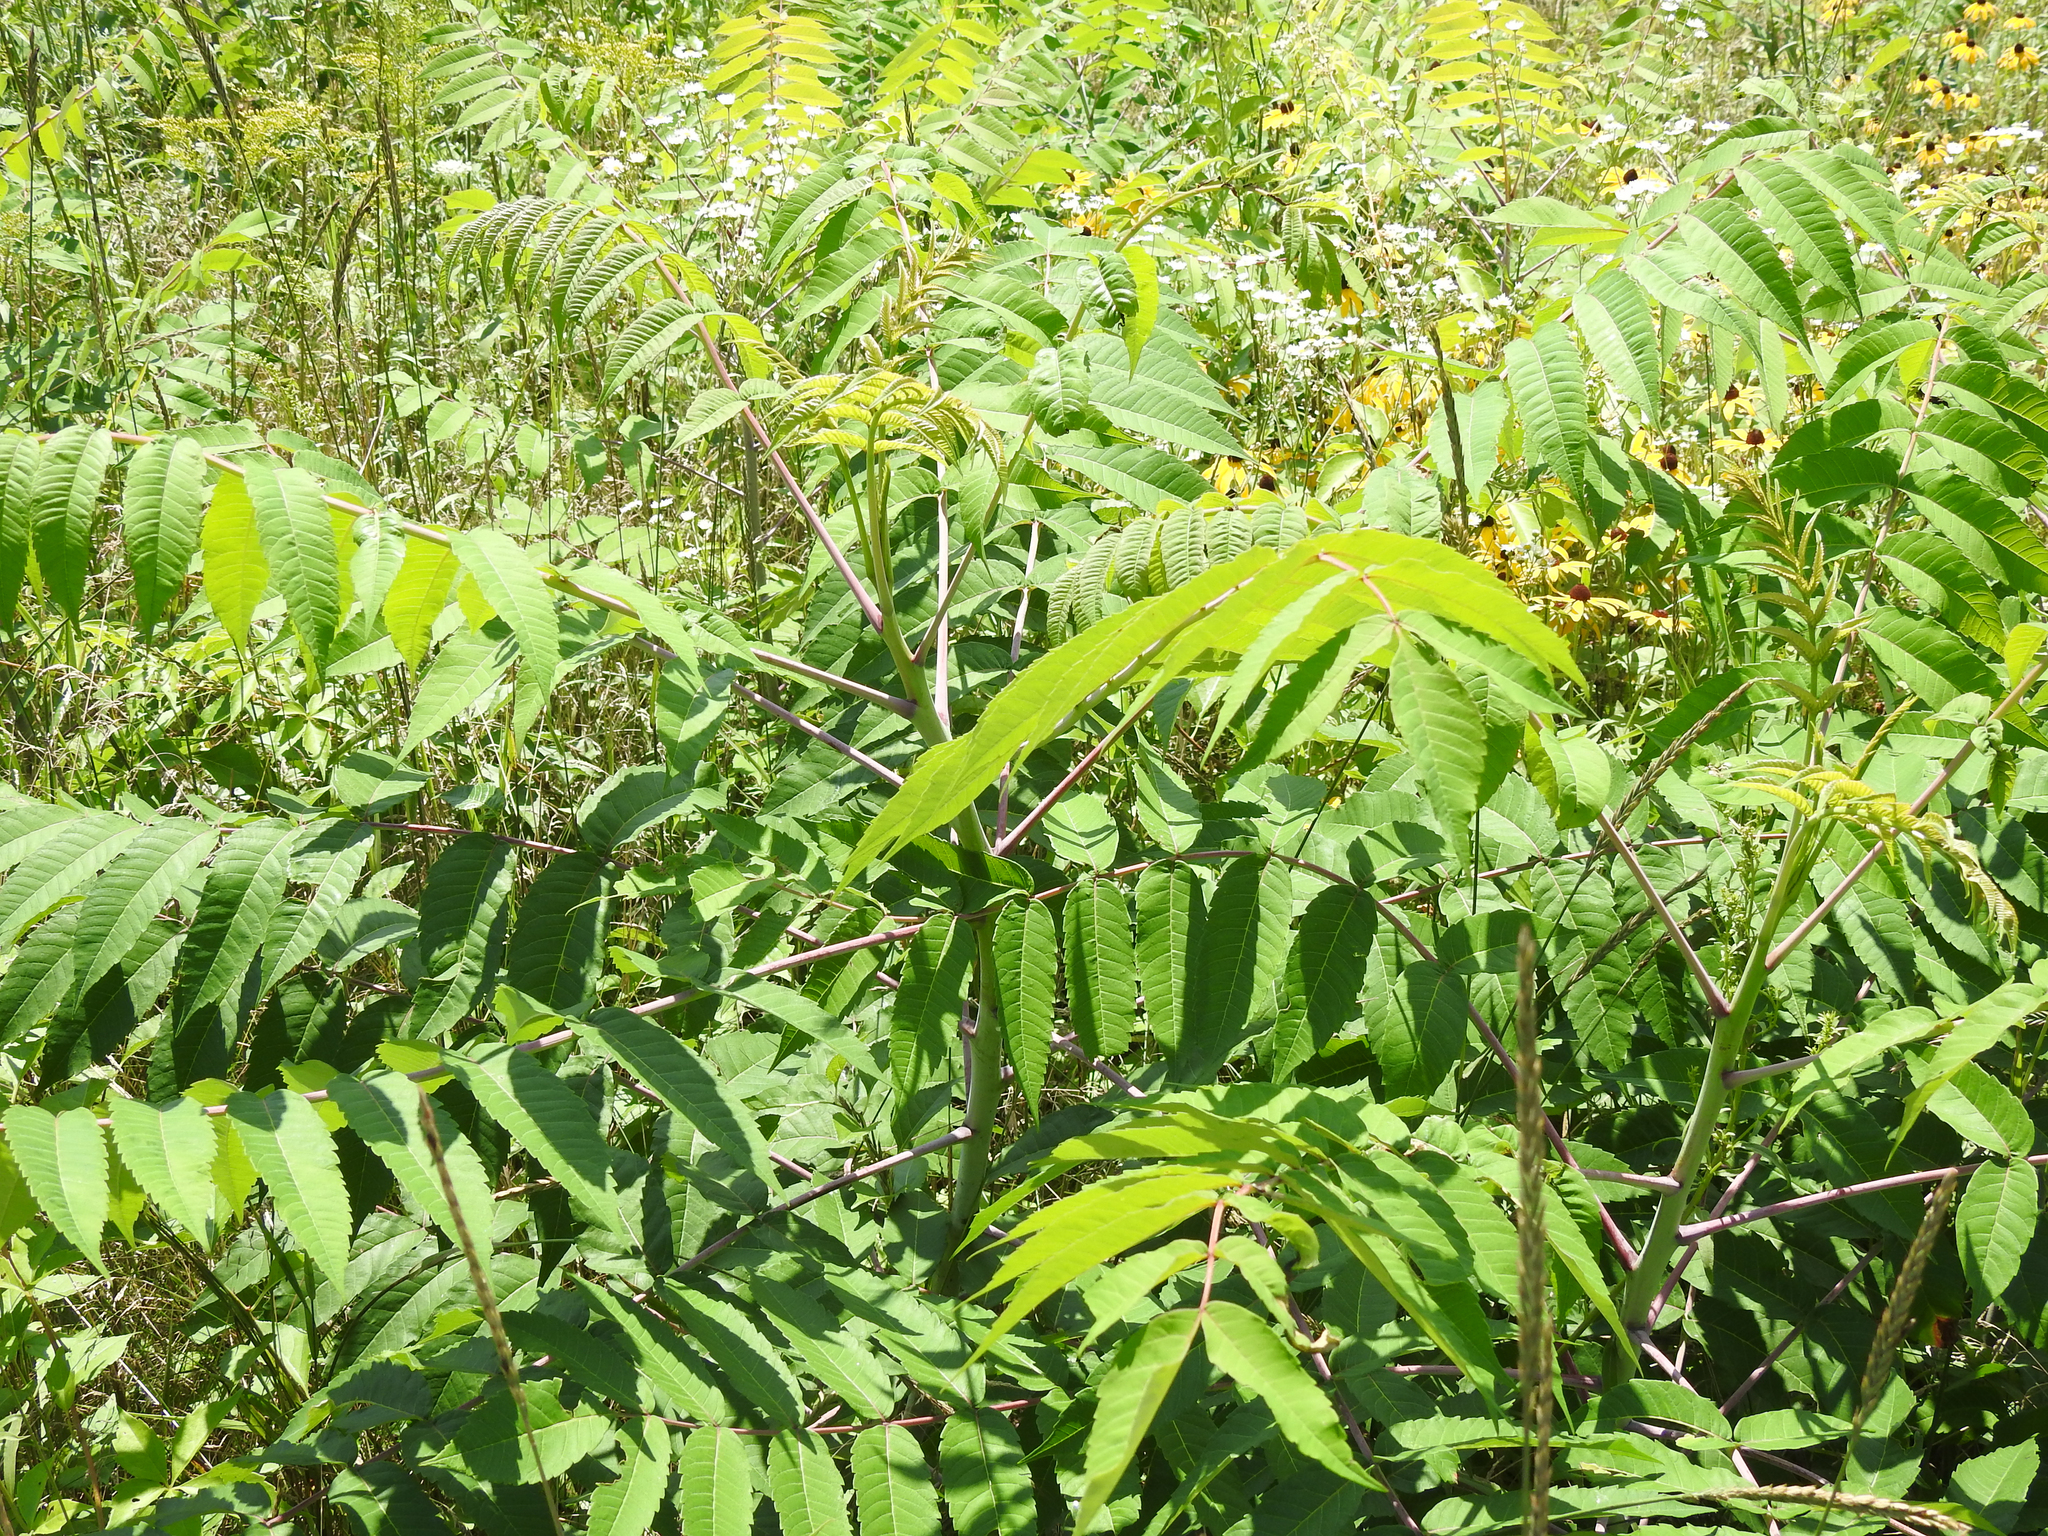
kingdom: Plantae
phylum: Tracheophyta
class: Magnoliopsida
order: Sapindales
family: Anacardiaceae
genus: Rhus
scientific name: Rhus glabra
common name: Scarlet sumac
